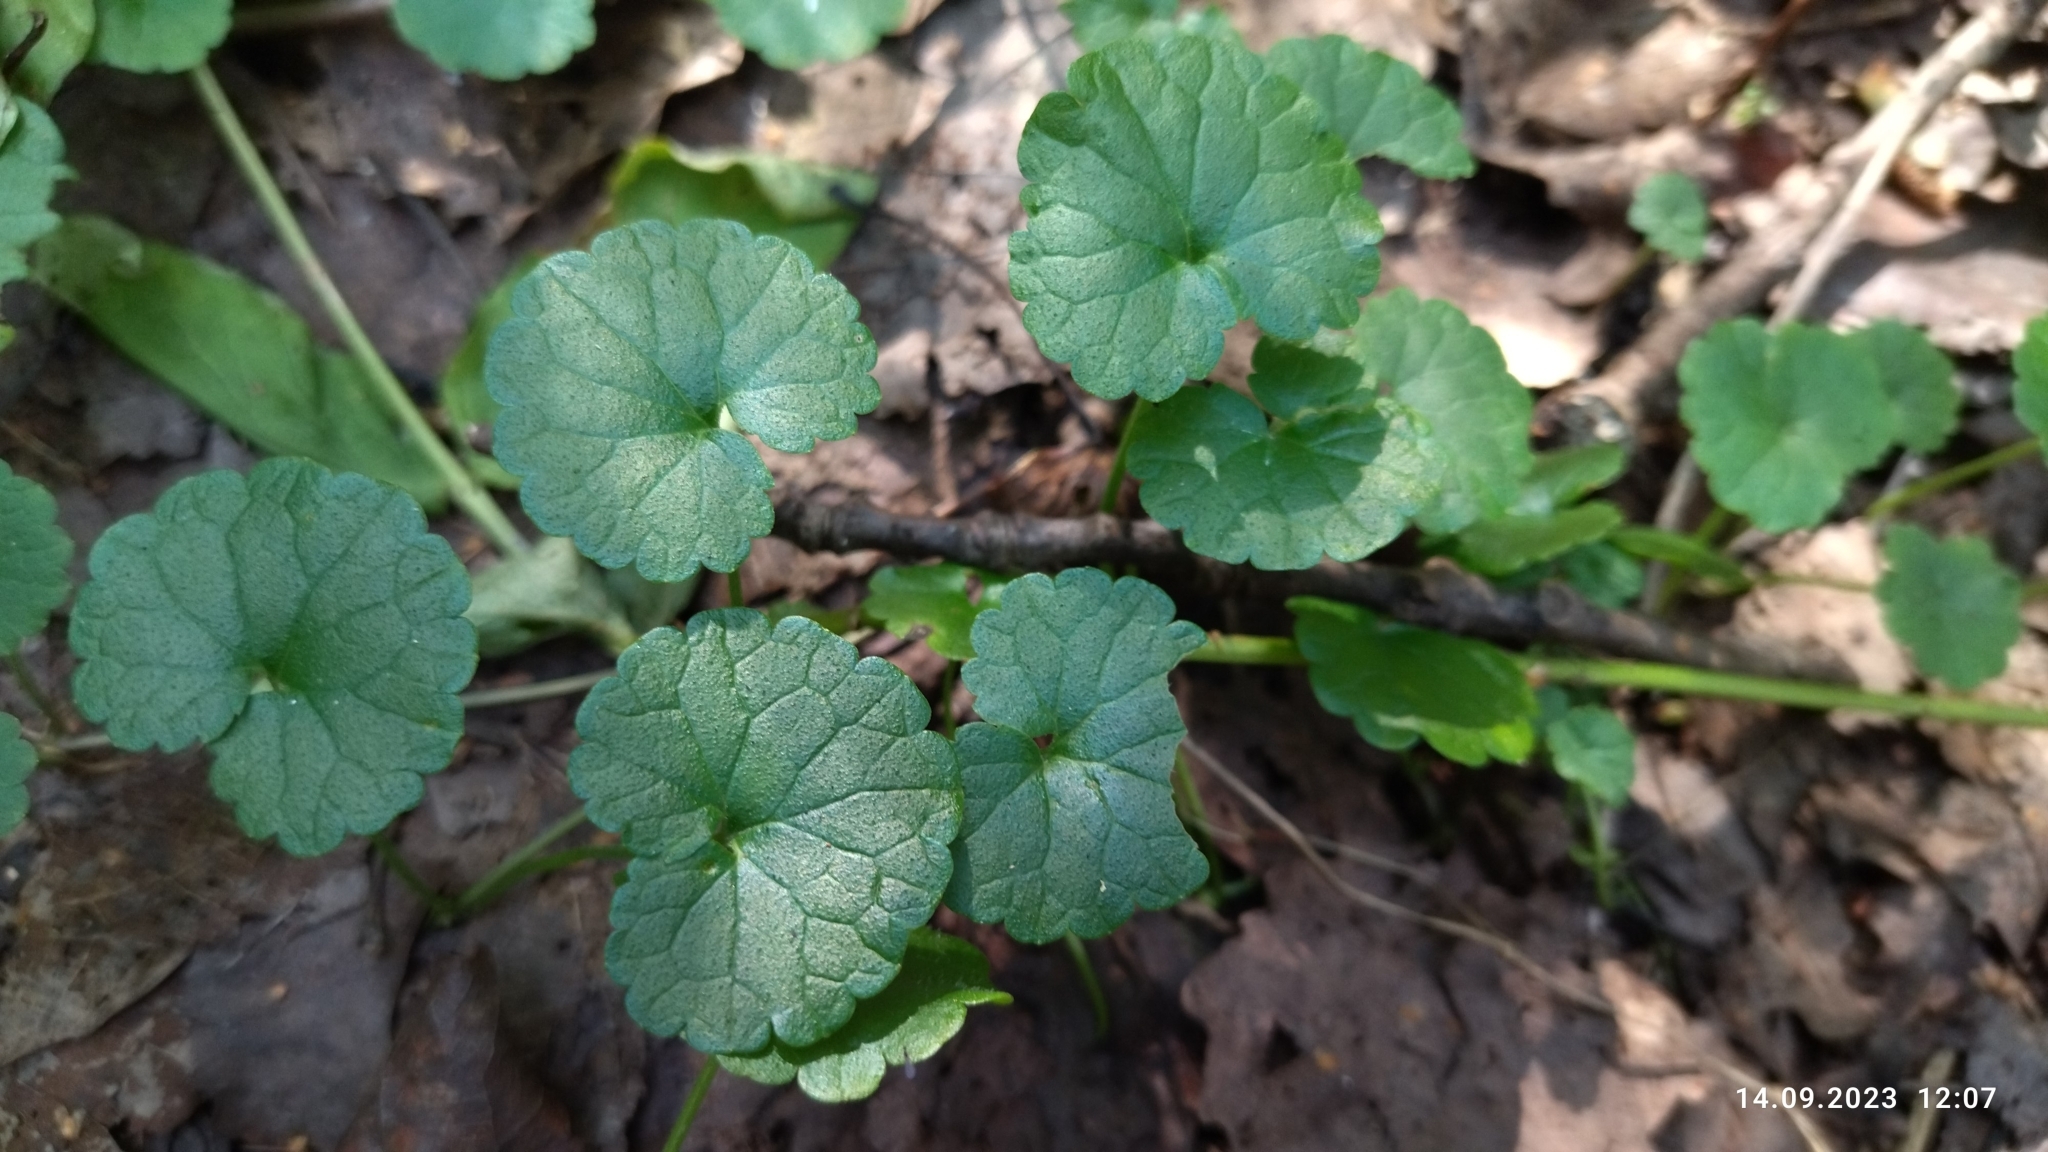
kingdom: Plantae
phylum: Tracheophyta
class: Magnoliopsida
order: Lamiales
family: Lamiaceae
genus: Glechoma
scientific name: Glechoma hederacea
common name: Ground ivy
